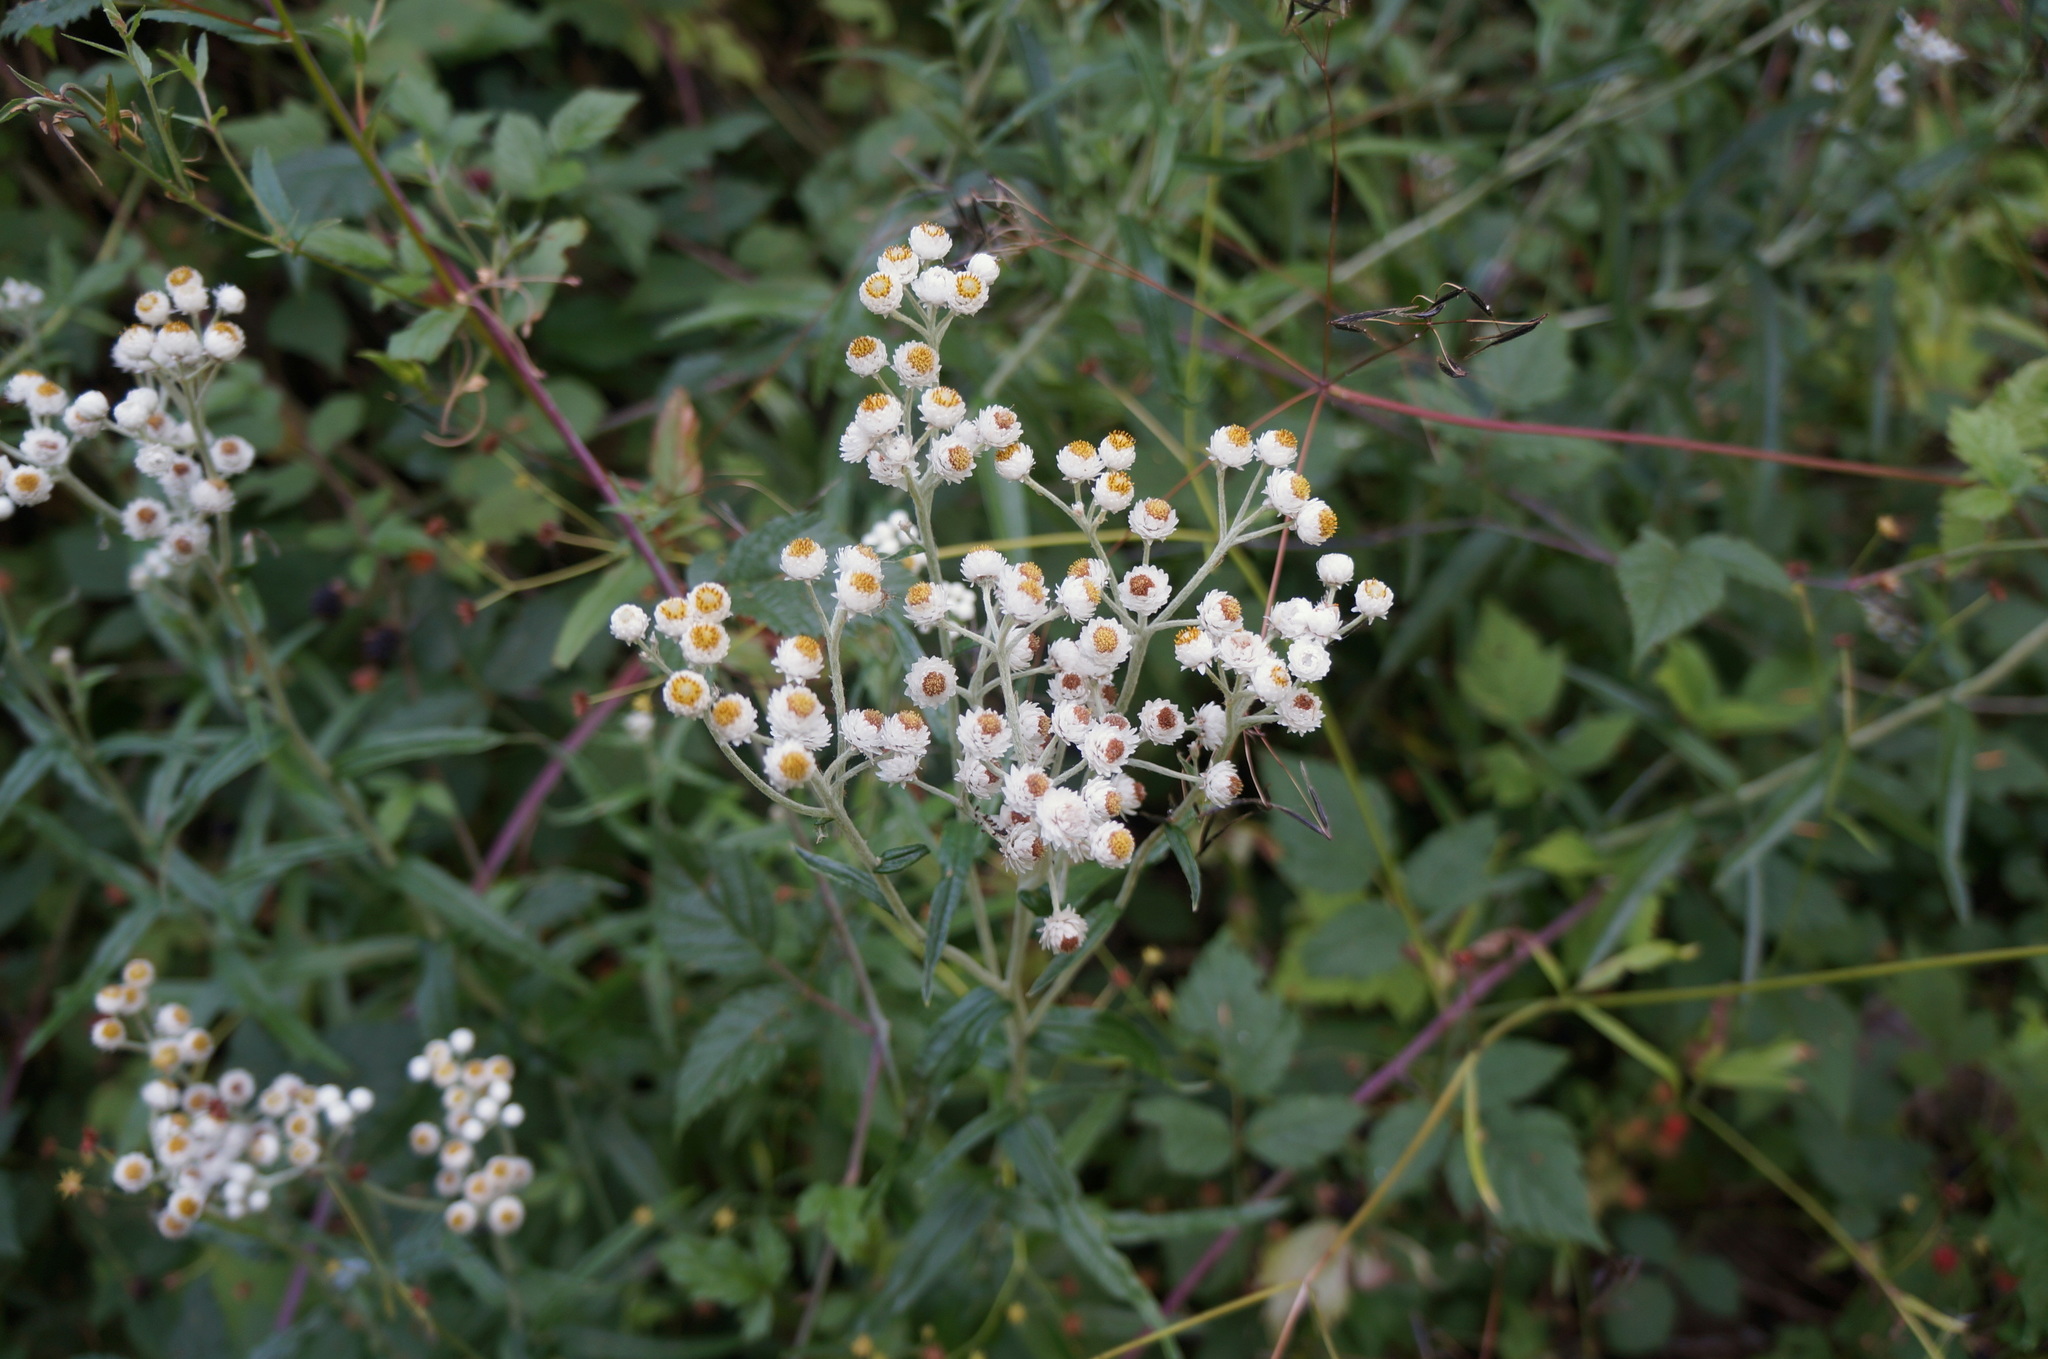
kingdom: Plantae
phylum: Tracheophyta
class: Magnoliopsida
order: Asterales
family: Asteraceae
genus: Anaphalis
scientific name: Anaphalis margaritacea
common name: Pearly everlasting
